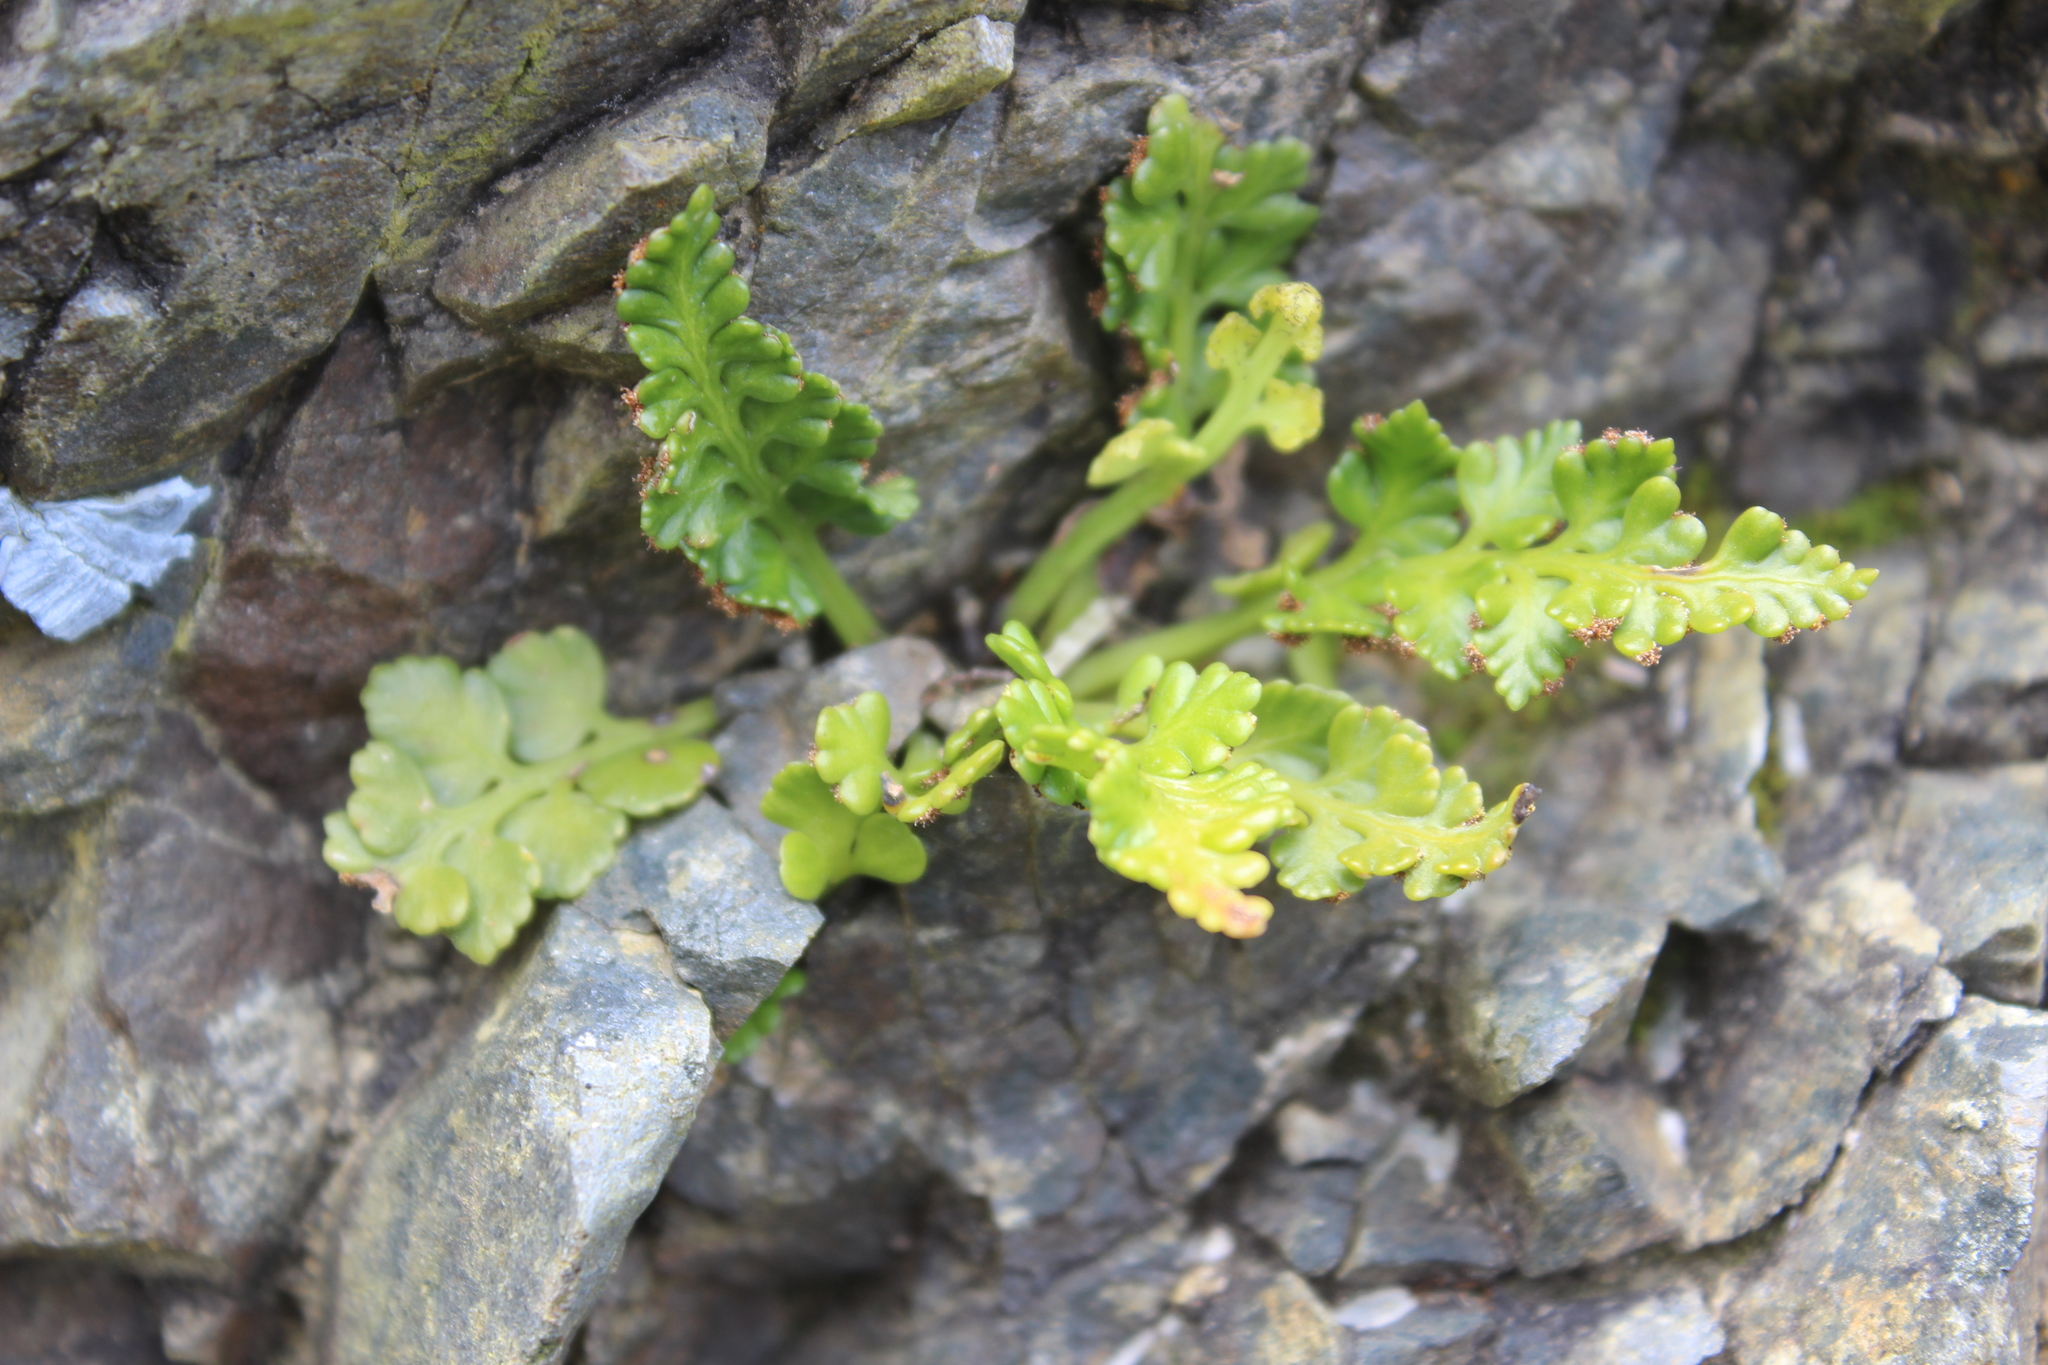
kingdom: Plantae
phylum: Tracheophyta
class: Polypodiopsida
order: Polypodiales
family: Aspleniaceae
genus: Asplenium
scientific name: Asplenium appendiculatum
